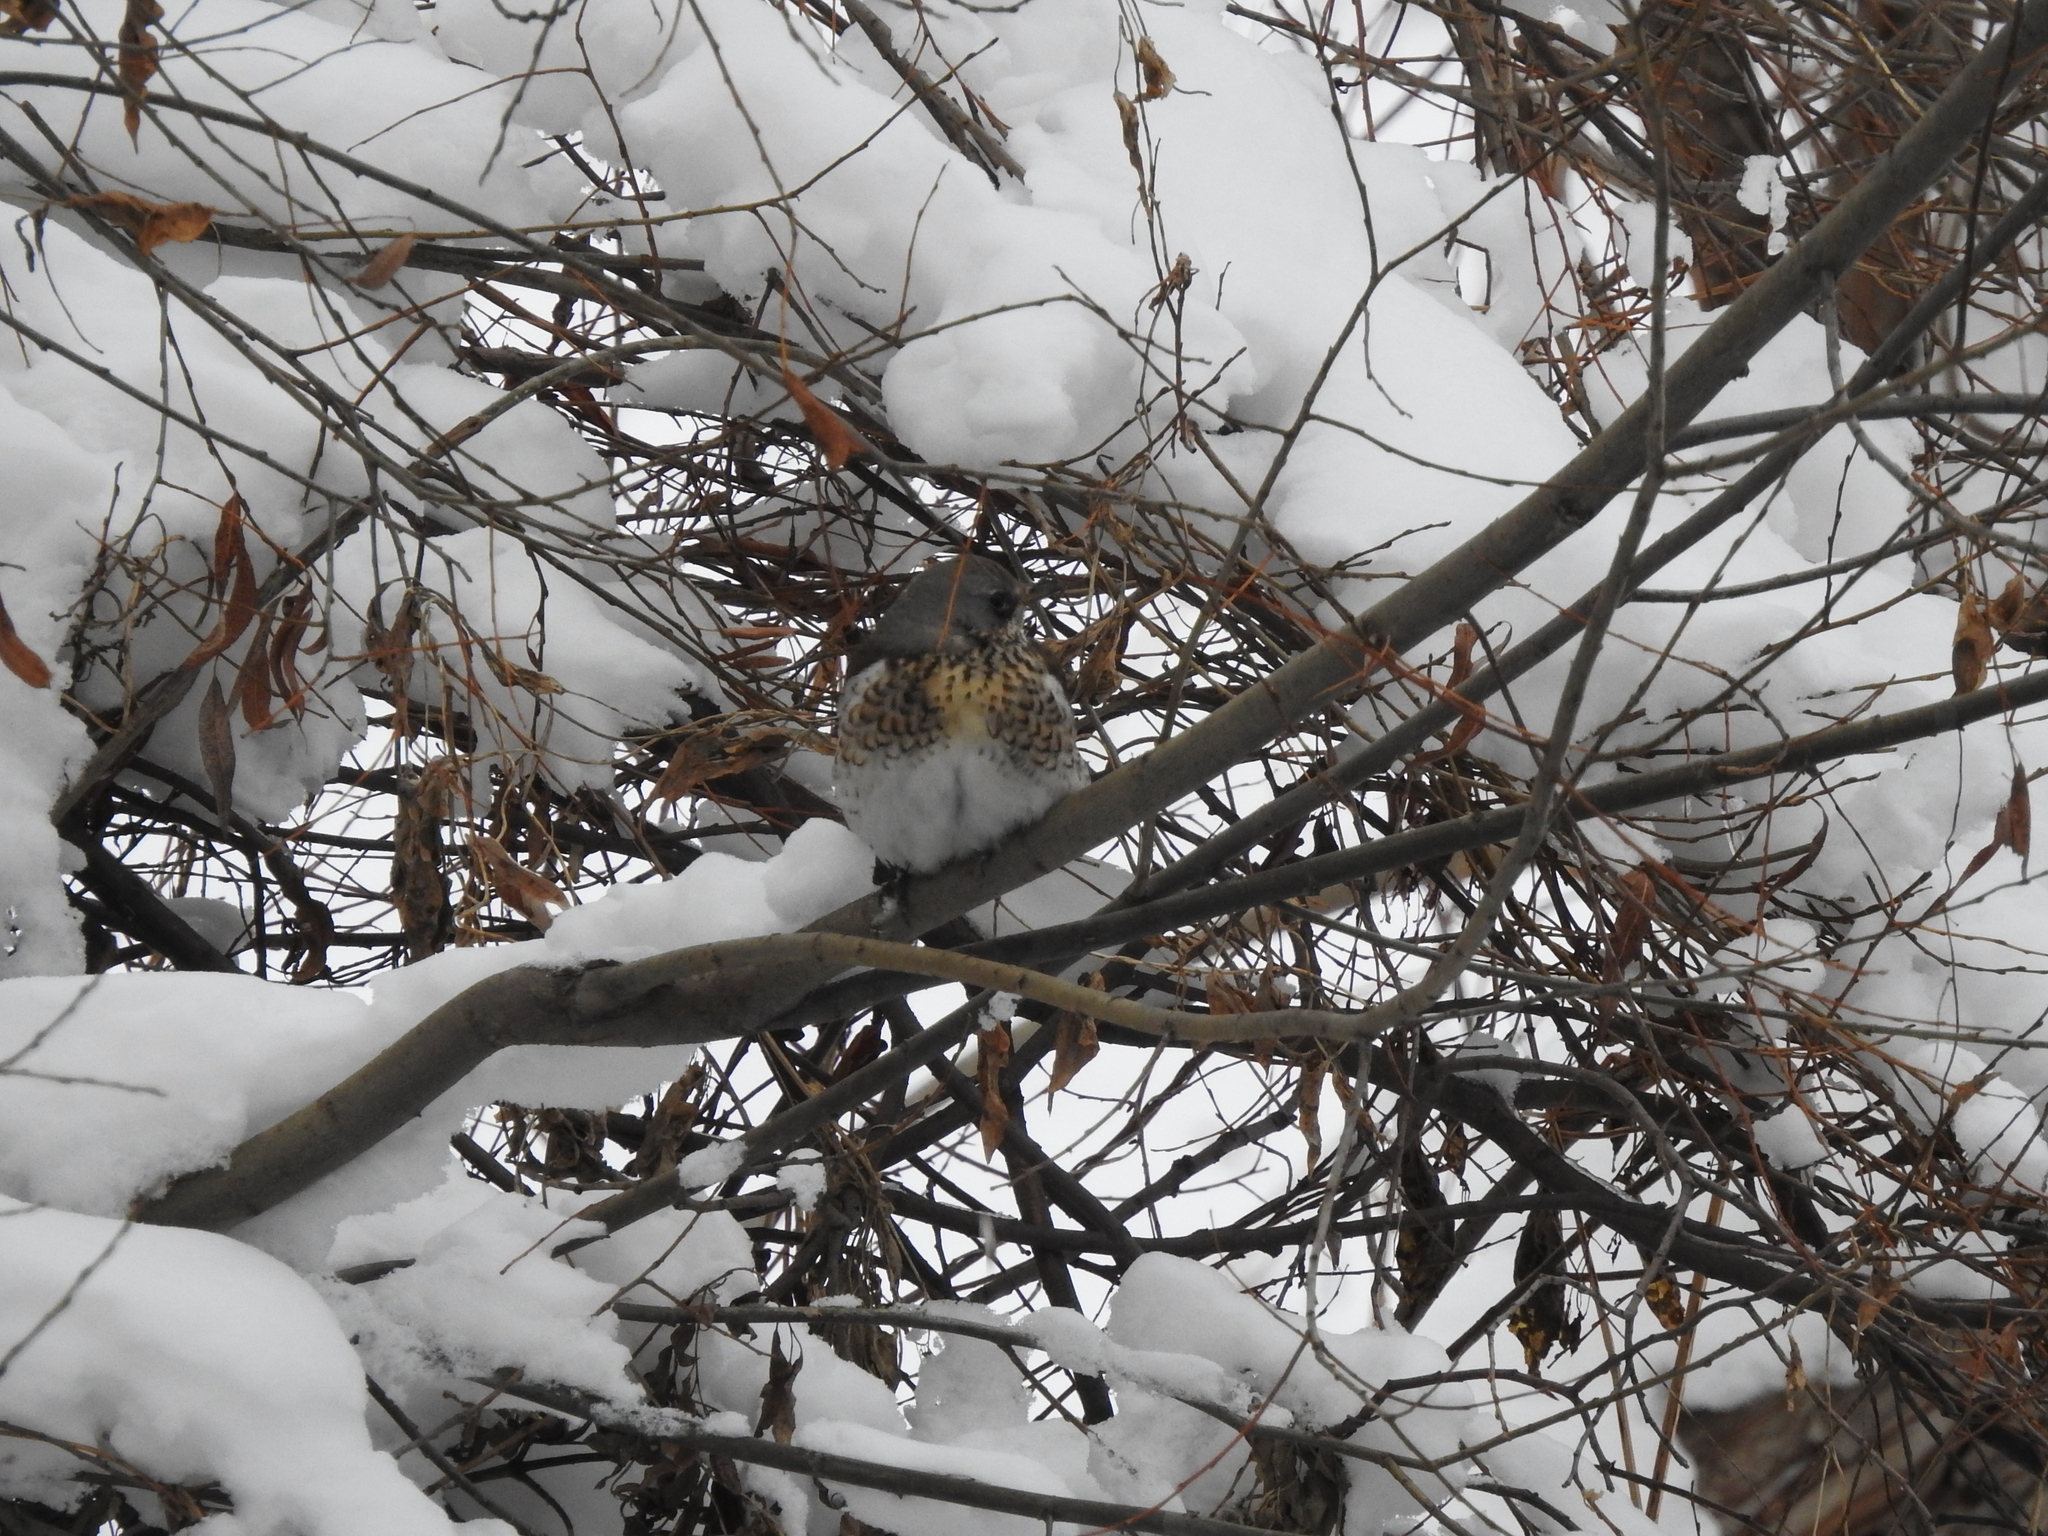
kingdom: Animalia
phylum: Chordata
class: Aves
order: Passeriformes
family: Turdidae
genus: Turdus
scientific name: Turdus pilaris
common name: Fieldfare
